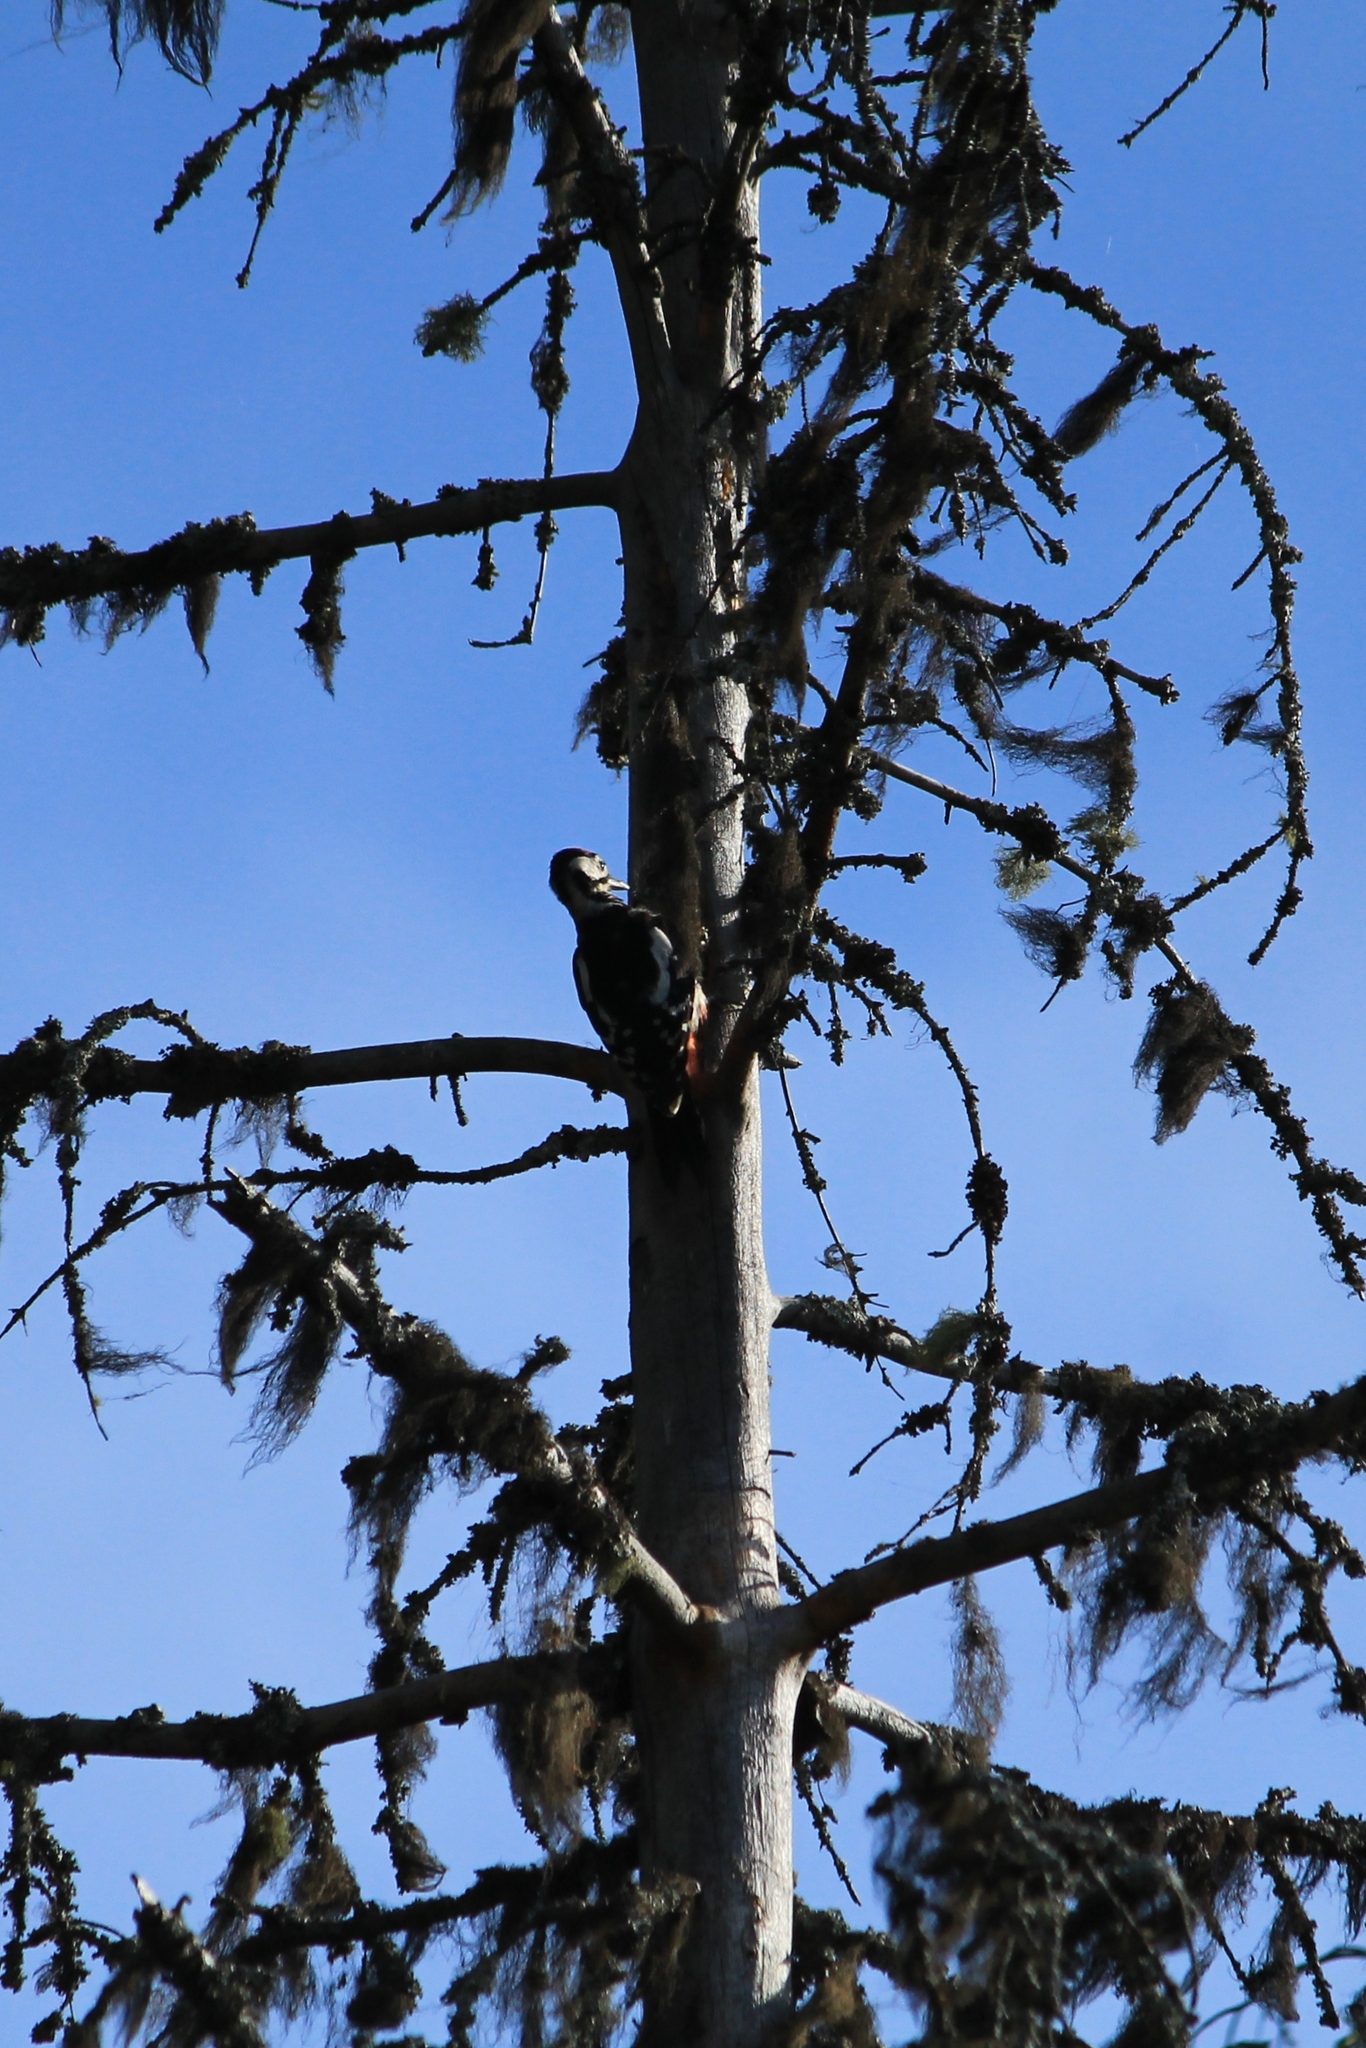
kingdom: Animalia
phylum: Chordata
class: Aves
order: Piciformes
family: Picidae
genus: Dendrocopos
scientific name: Dendrocopos major
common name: Great spotted woodpecker
